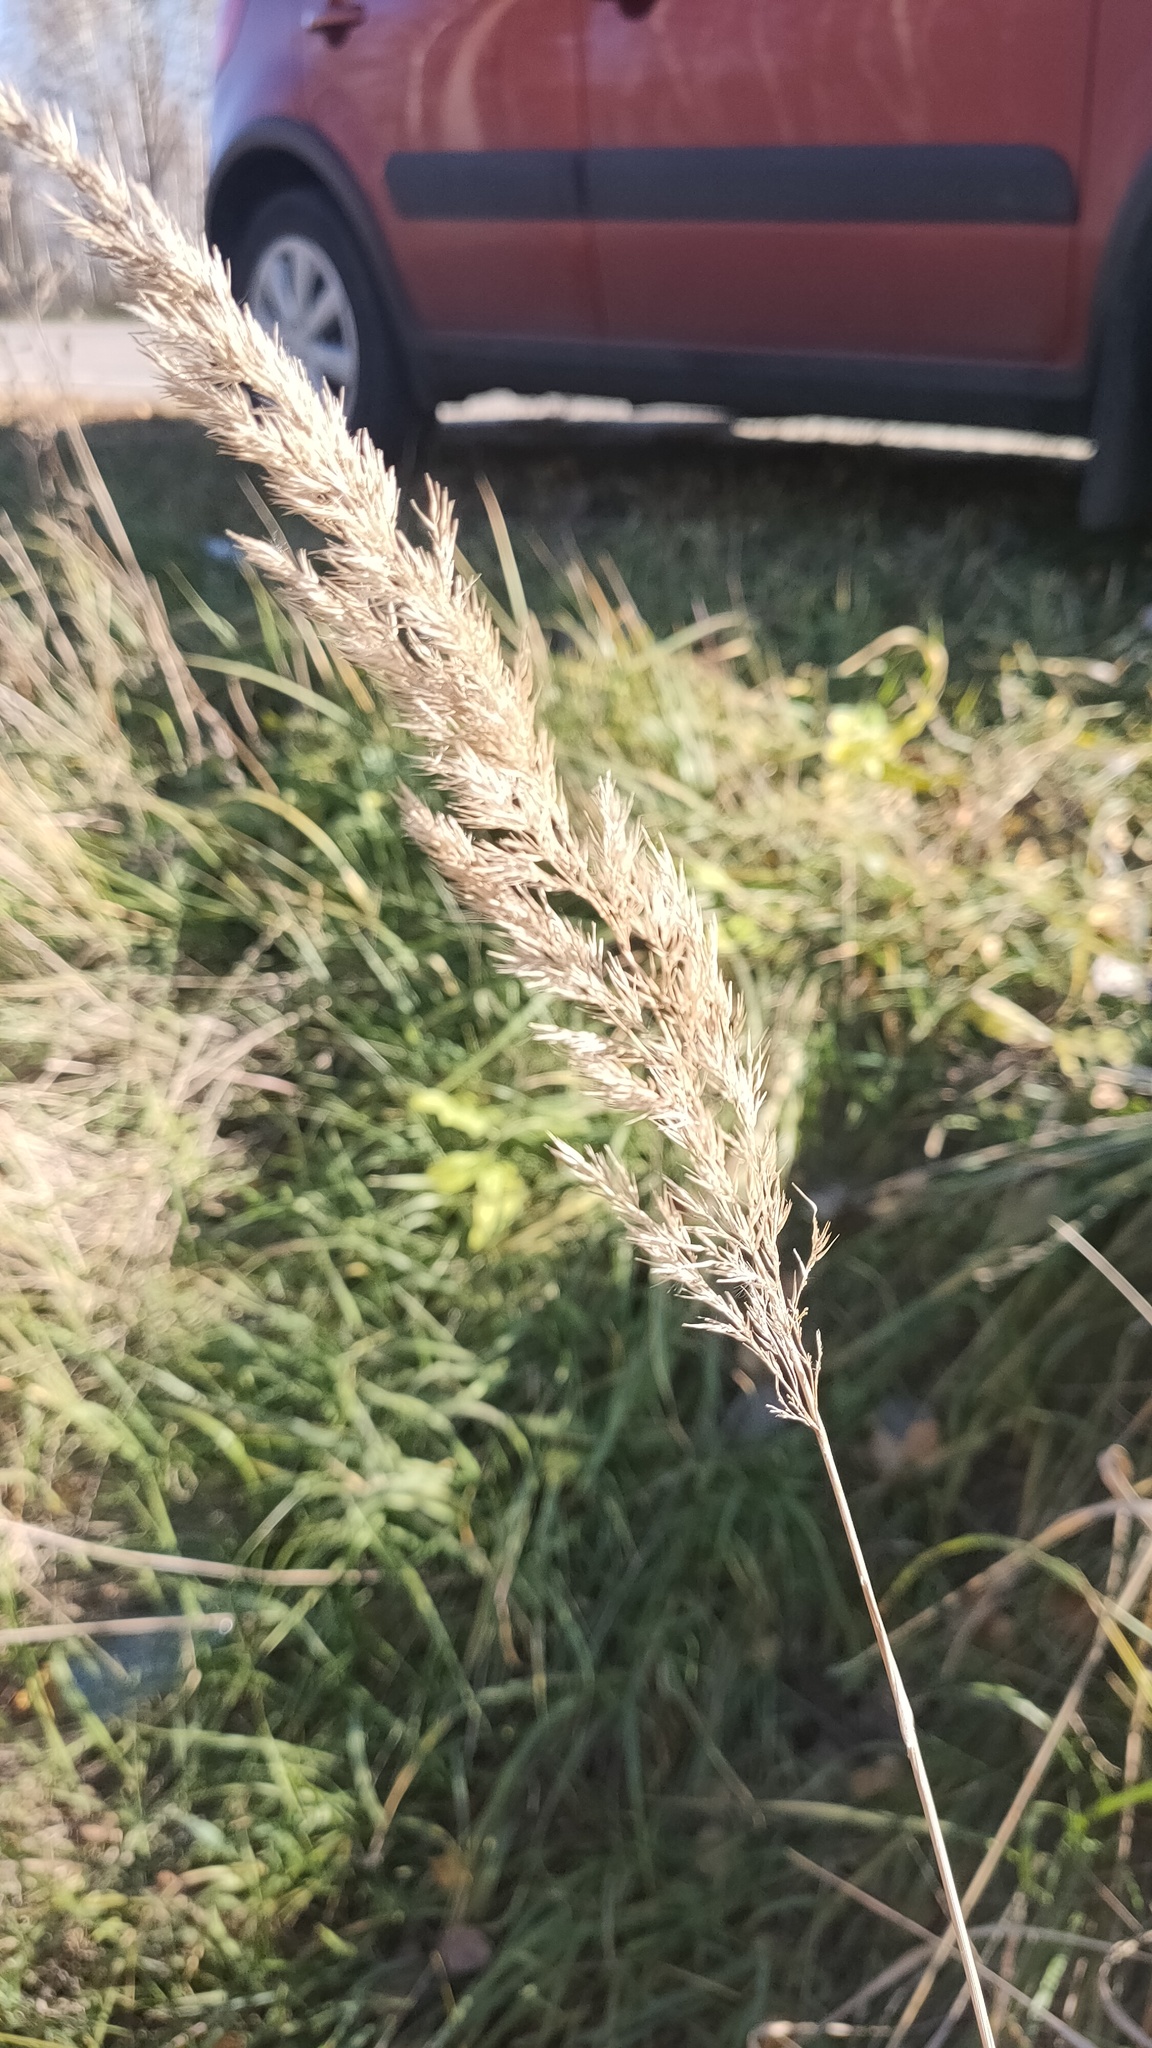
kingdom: Plantae
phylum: Tracheophyta
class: Liliopsida
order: Poales
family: Poaceae
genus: Calamagrostis
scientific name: Calamagrostis epigejos
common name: Wood small-reed
